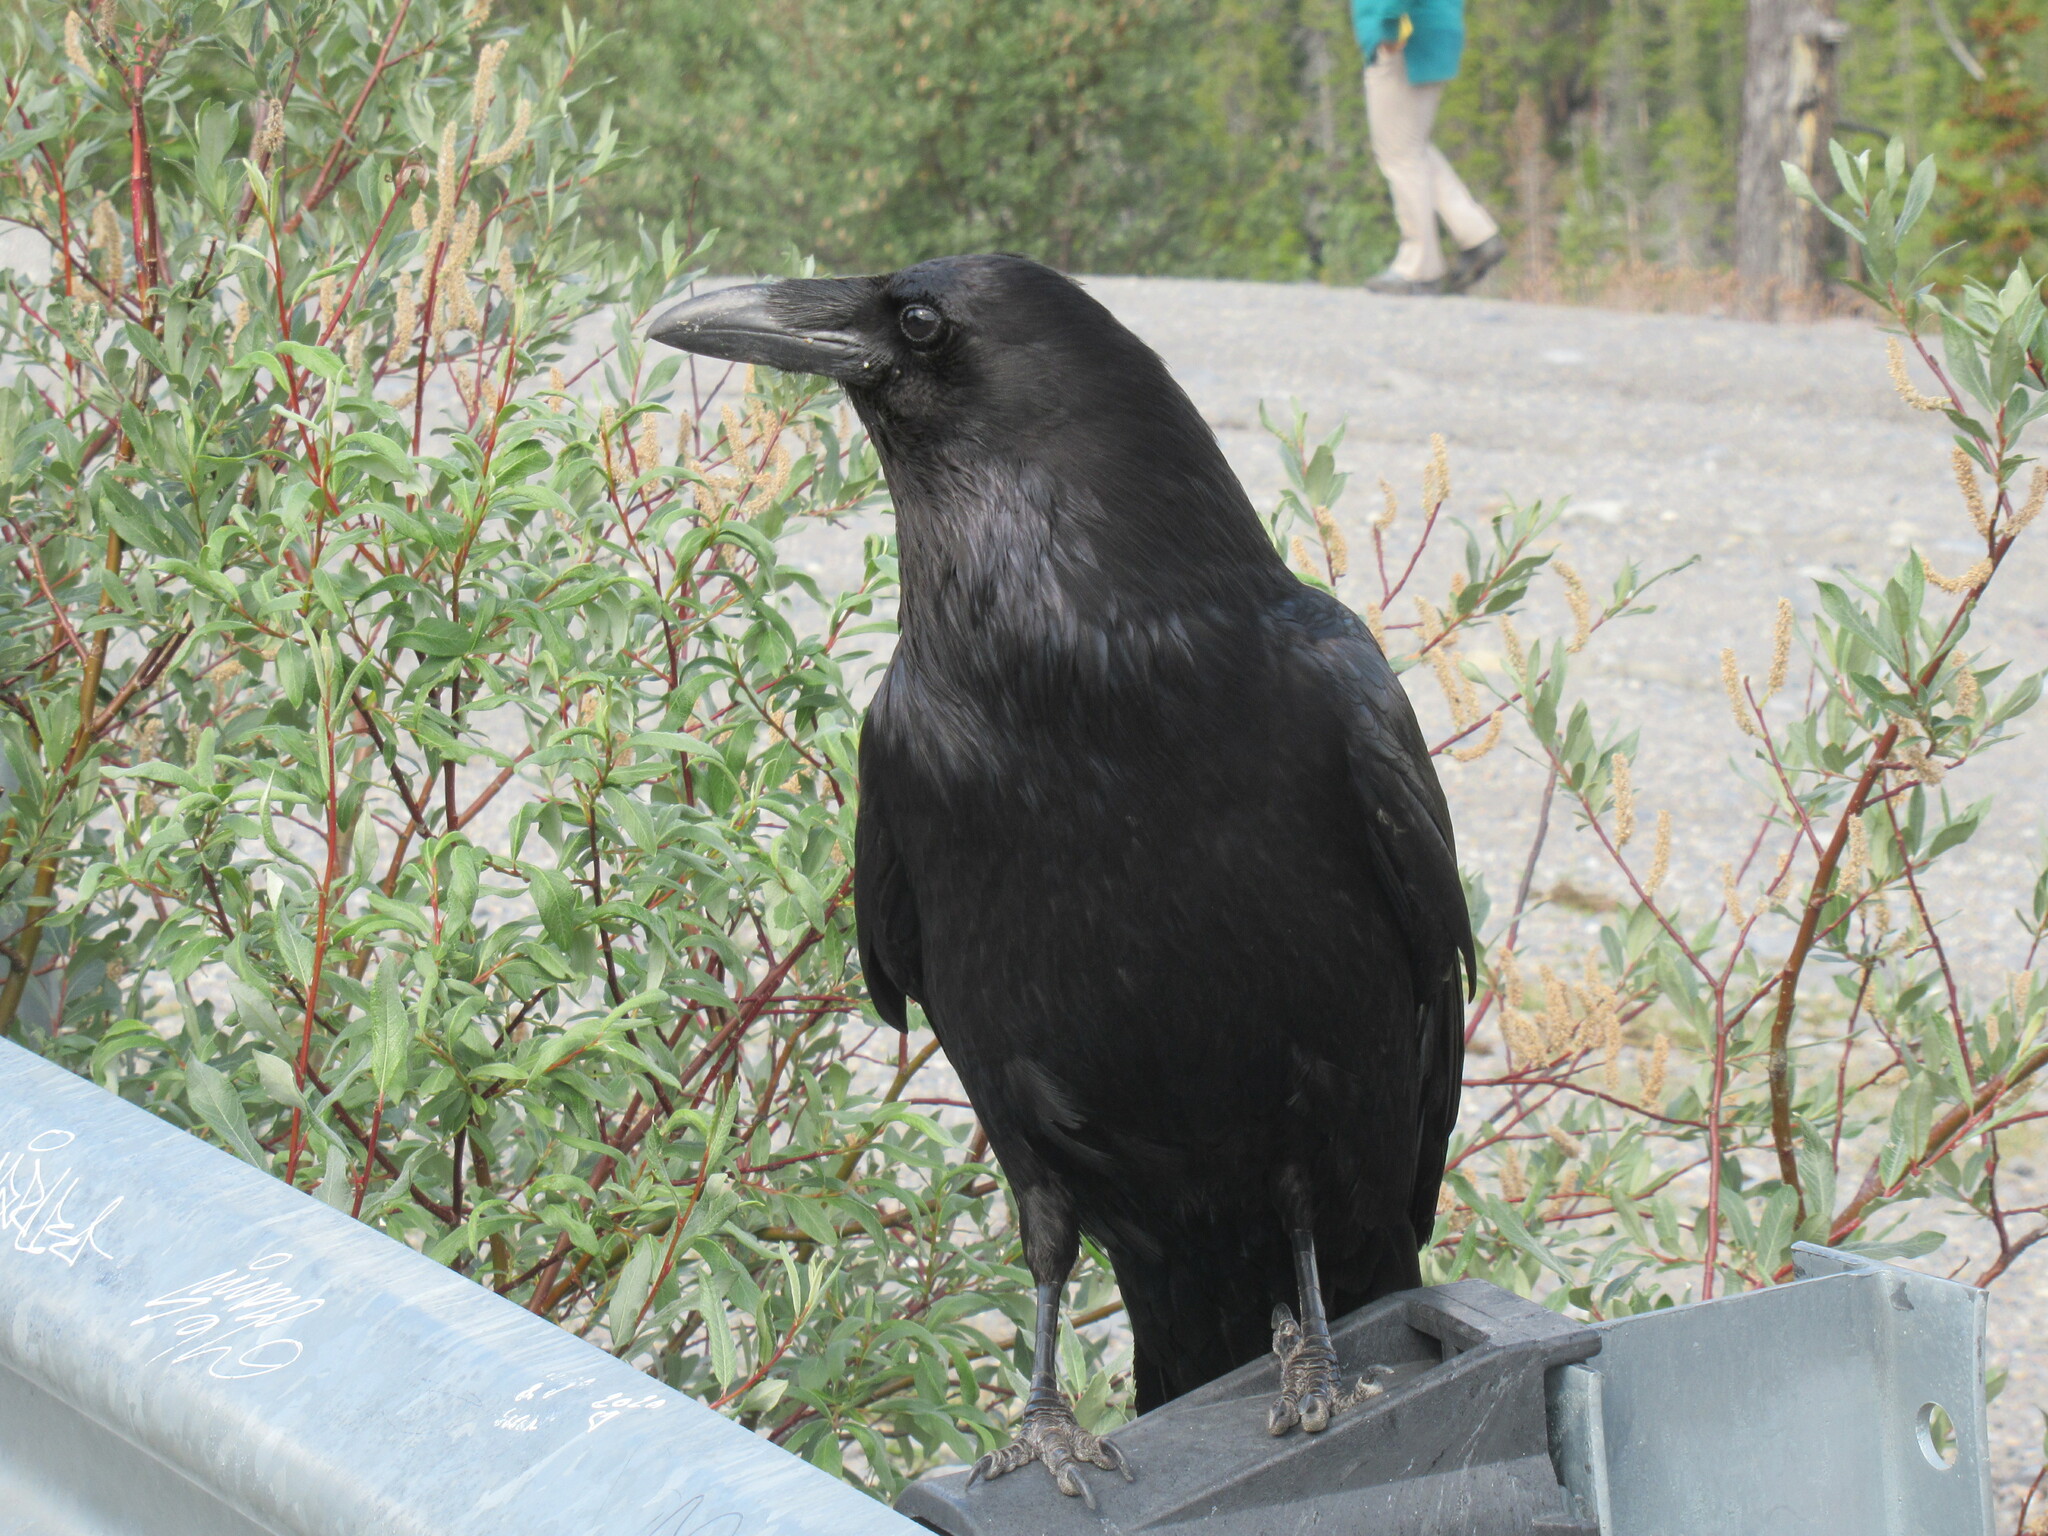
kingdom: Animalia
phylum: Chordata
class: Aves
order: Passeriformes
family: Corvidae
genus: Corvus
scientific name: Corvus corax
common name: Common raven
